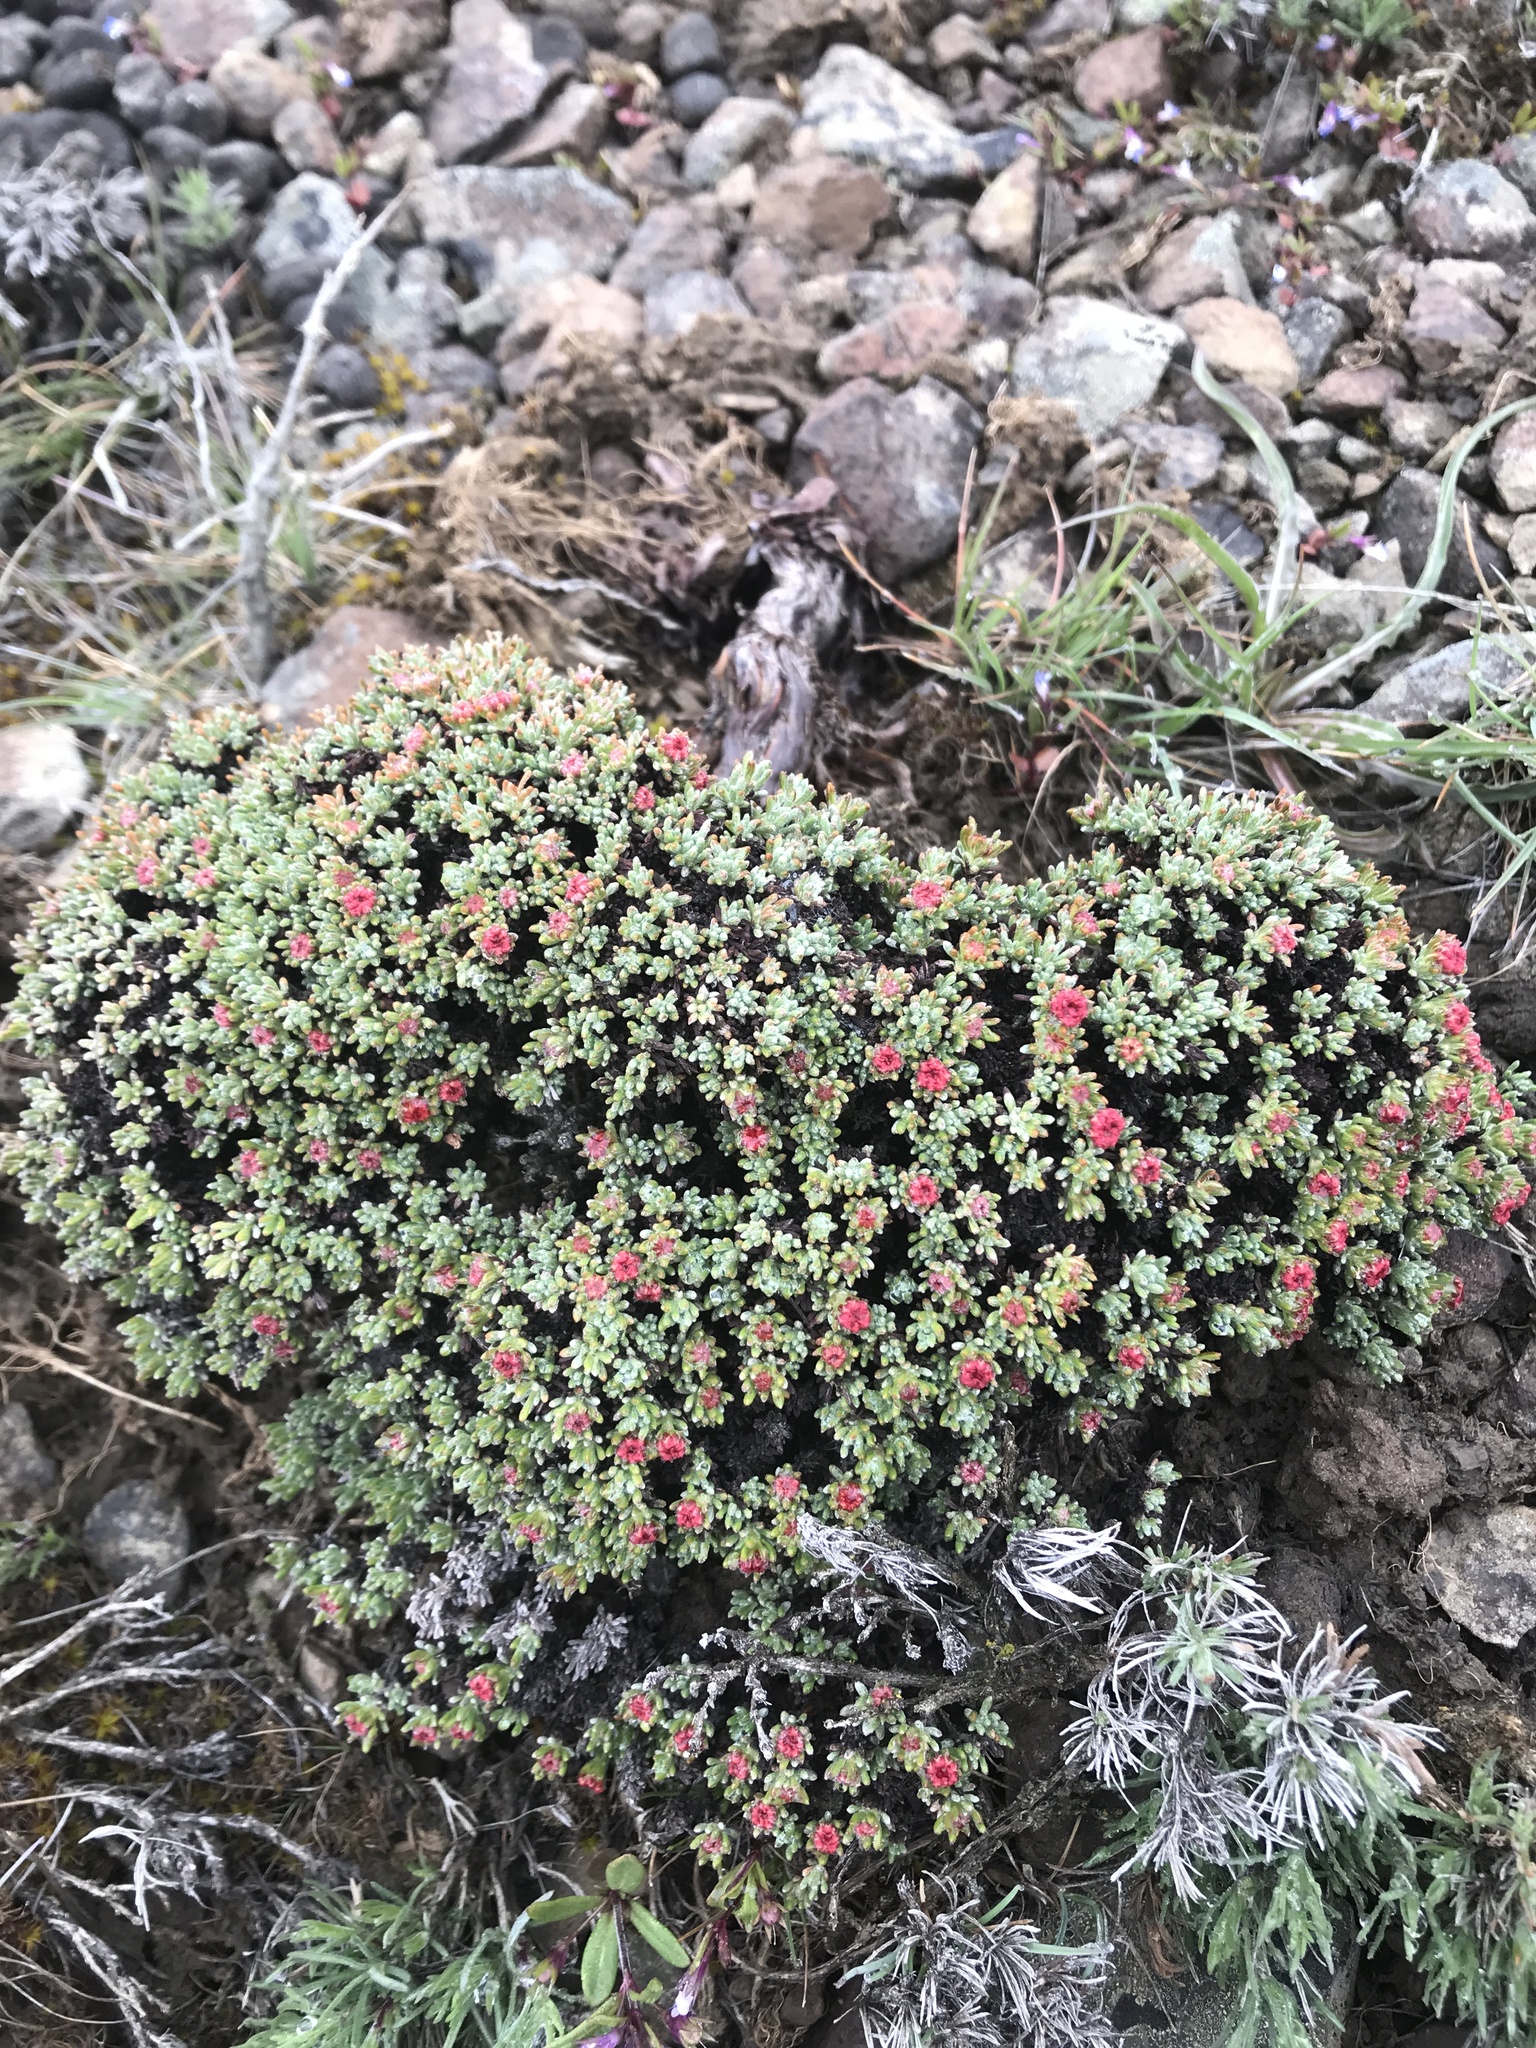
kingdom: Plantae
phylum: Tracheophyta
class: Magnoliopsida
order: Caryophyllales
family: Polygonaceae
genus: Eriogonum
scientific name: Eriogonum thymoides
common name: Thyme-leaf wild buckwheat
